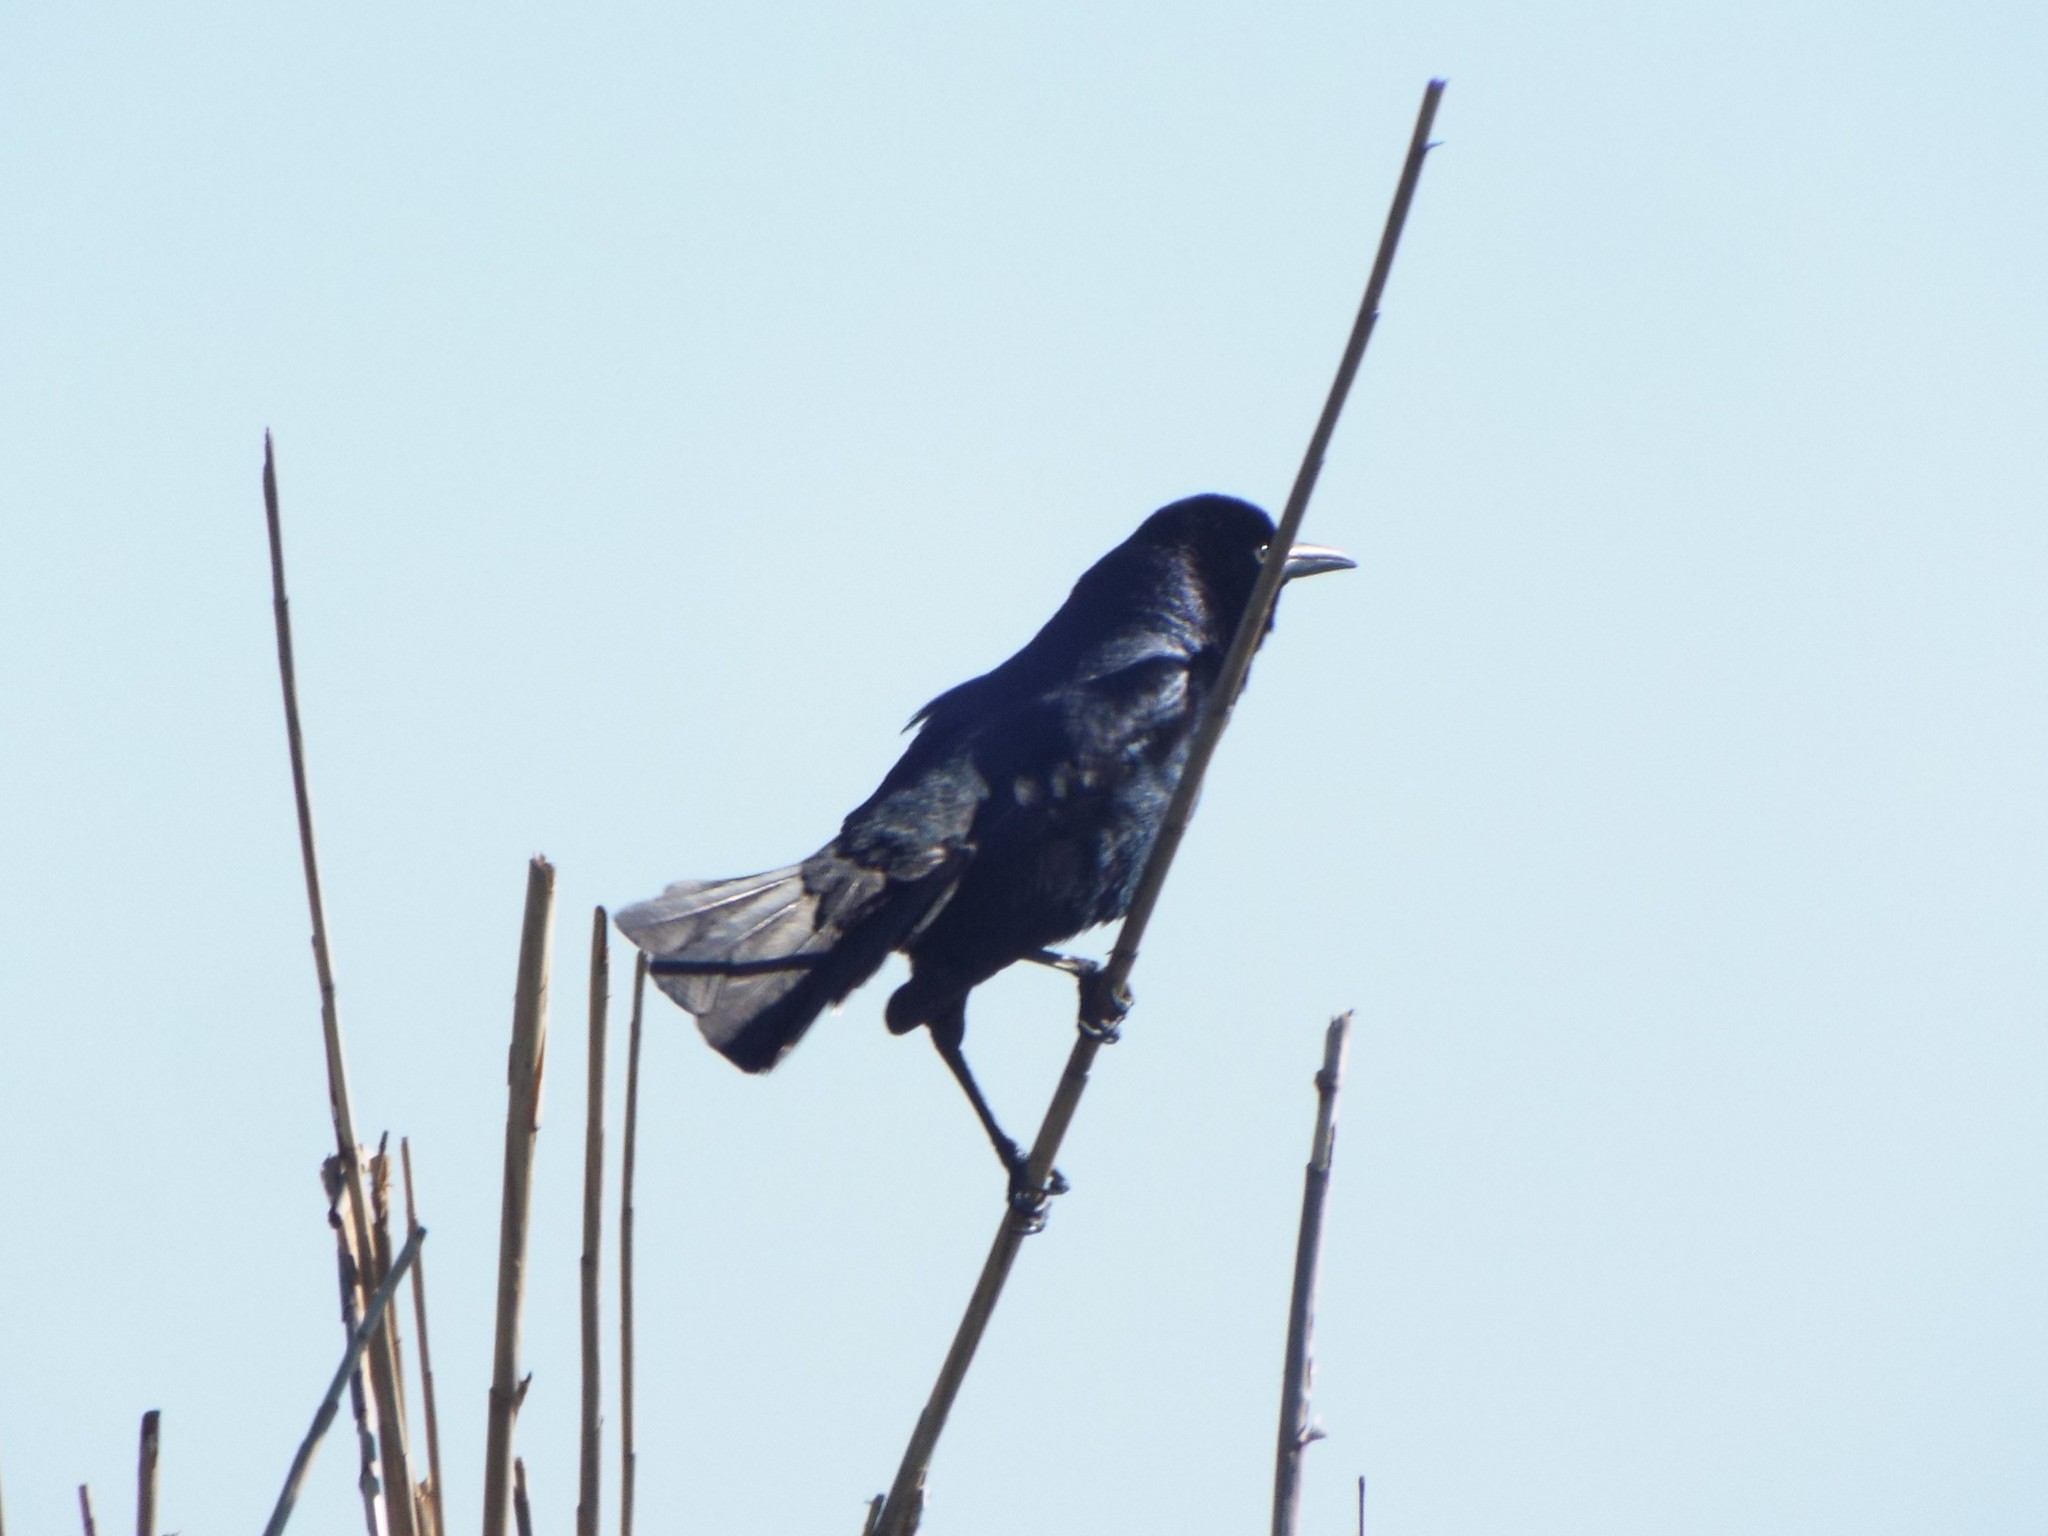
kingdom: Animalia
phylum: Chordata
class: Aves
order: Passeriformes
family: Icteridae
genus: Quiscalus
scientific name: Quiscalus major
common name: Boat-tailed grackle
